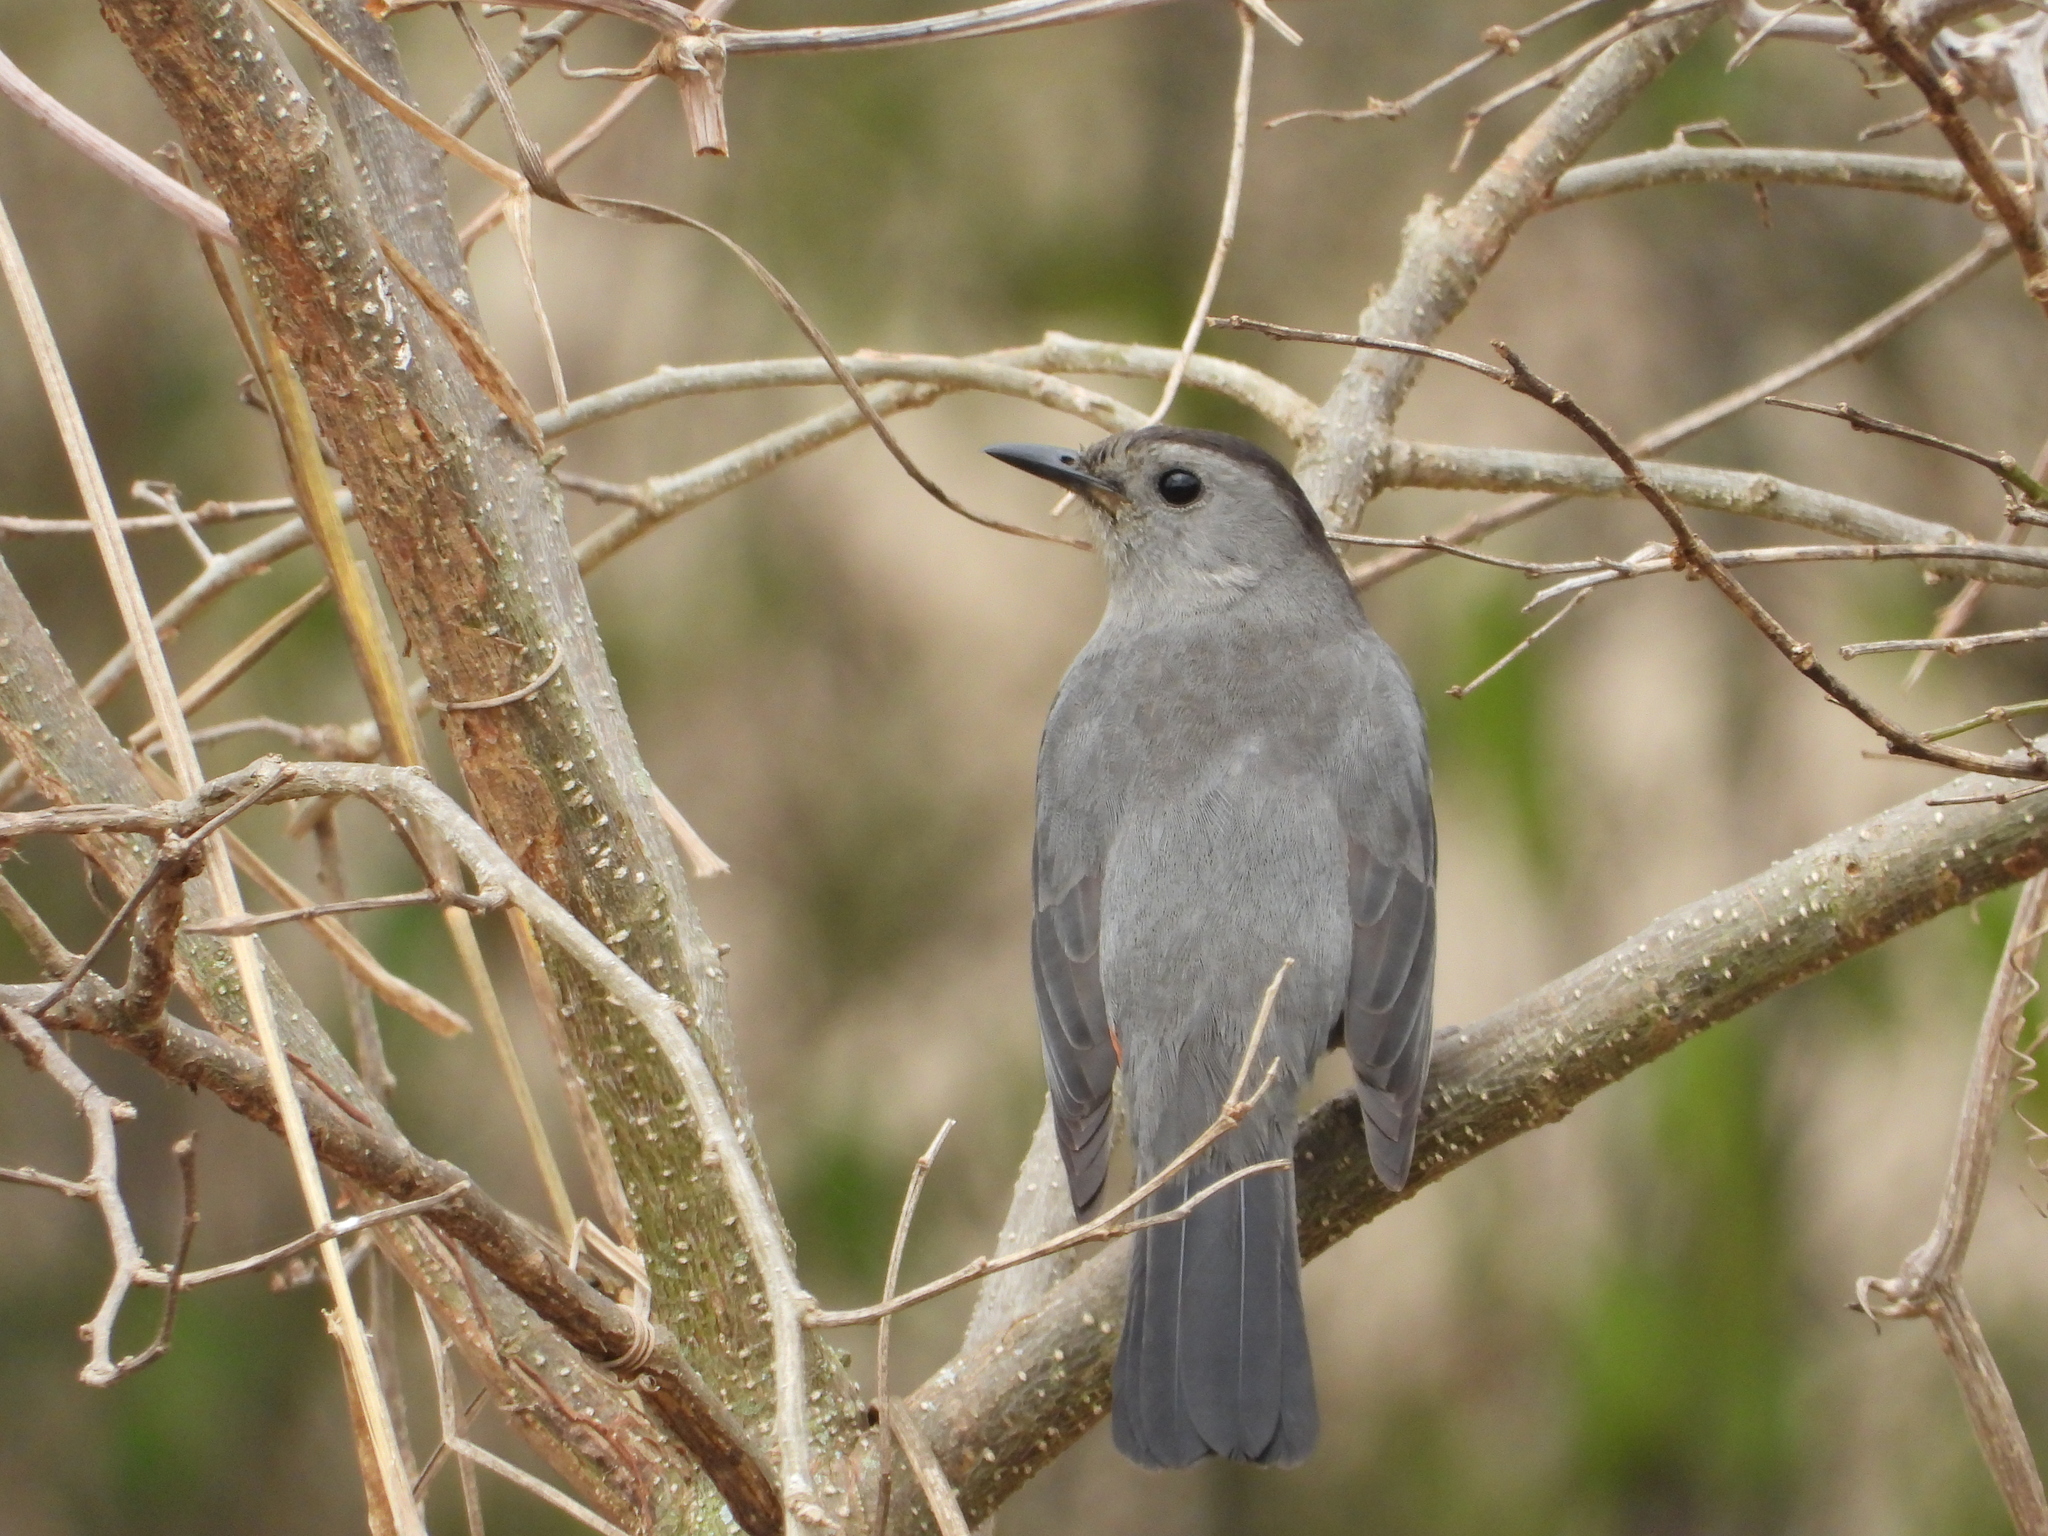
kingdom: Animalia
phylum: Chordata
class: Aves
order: Passeriformes
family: Mimidae
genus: Dumetella
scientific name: Dumetella carolinensis
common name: Gray catbird
